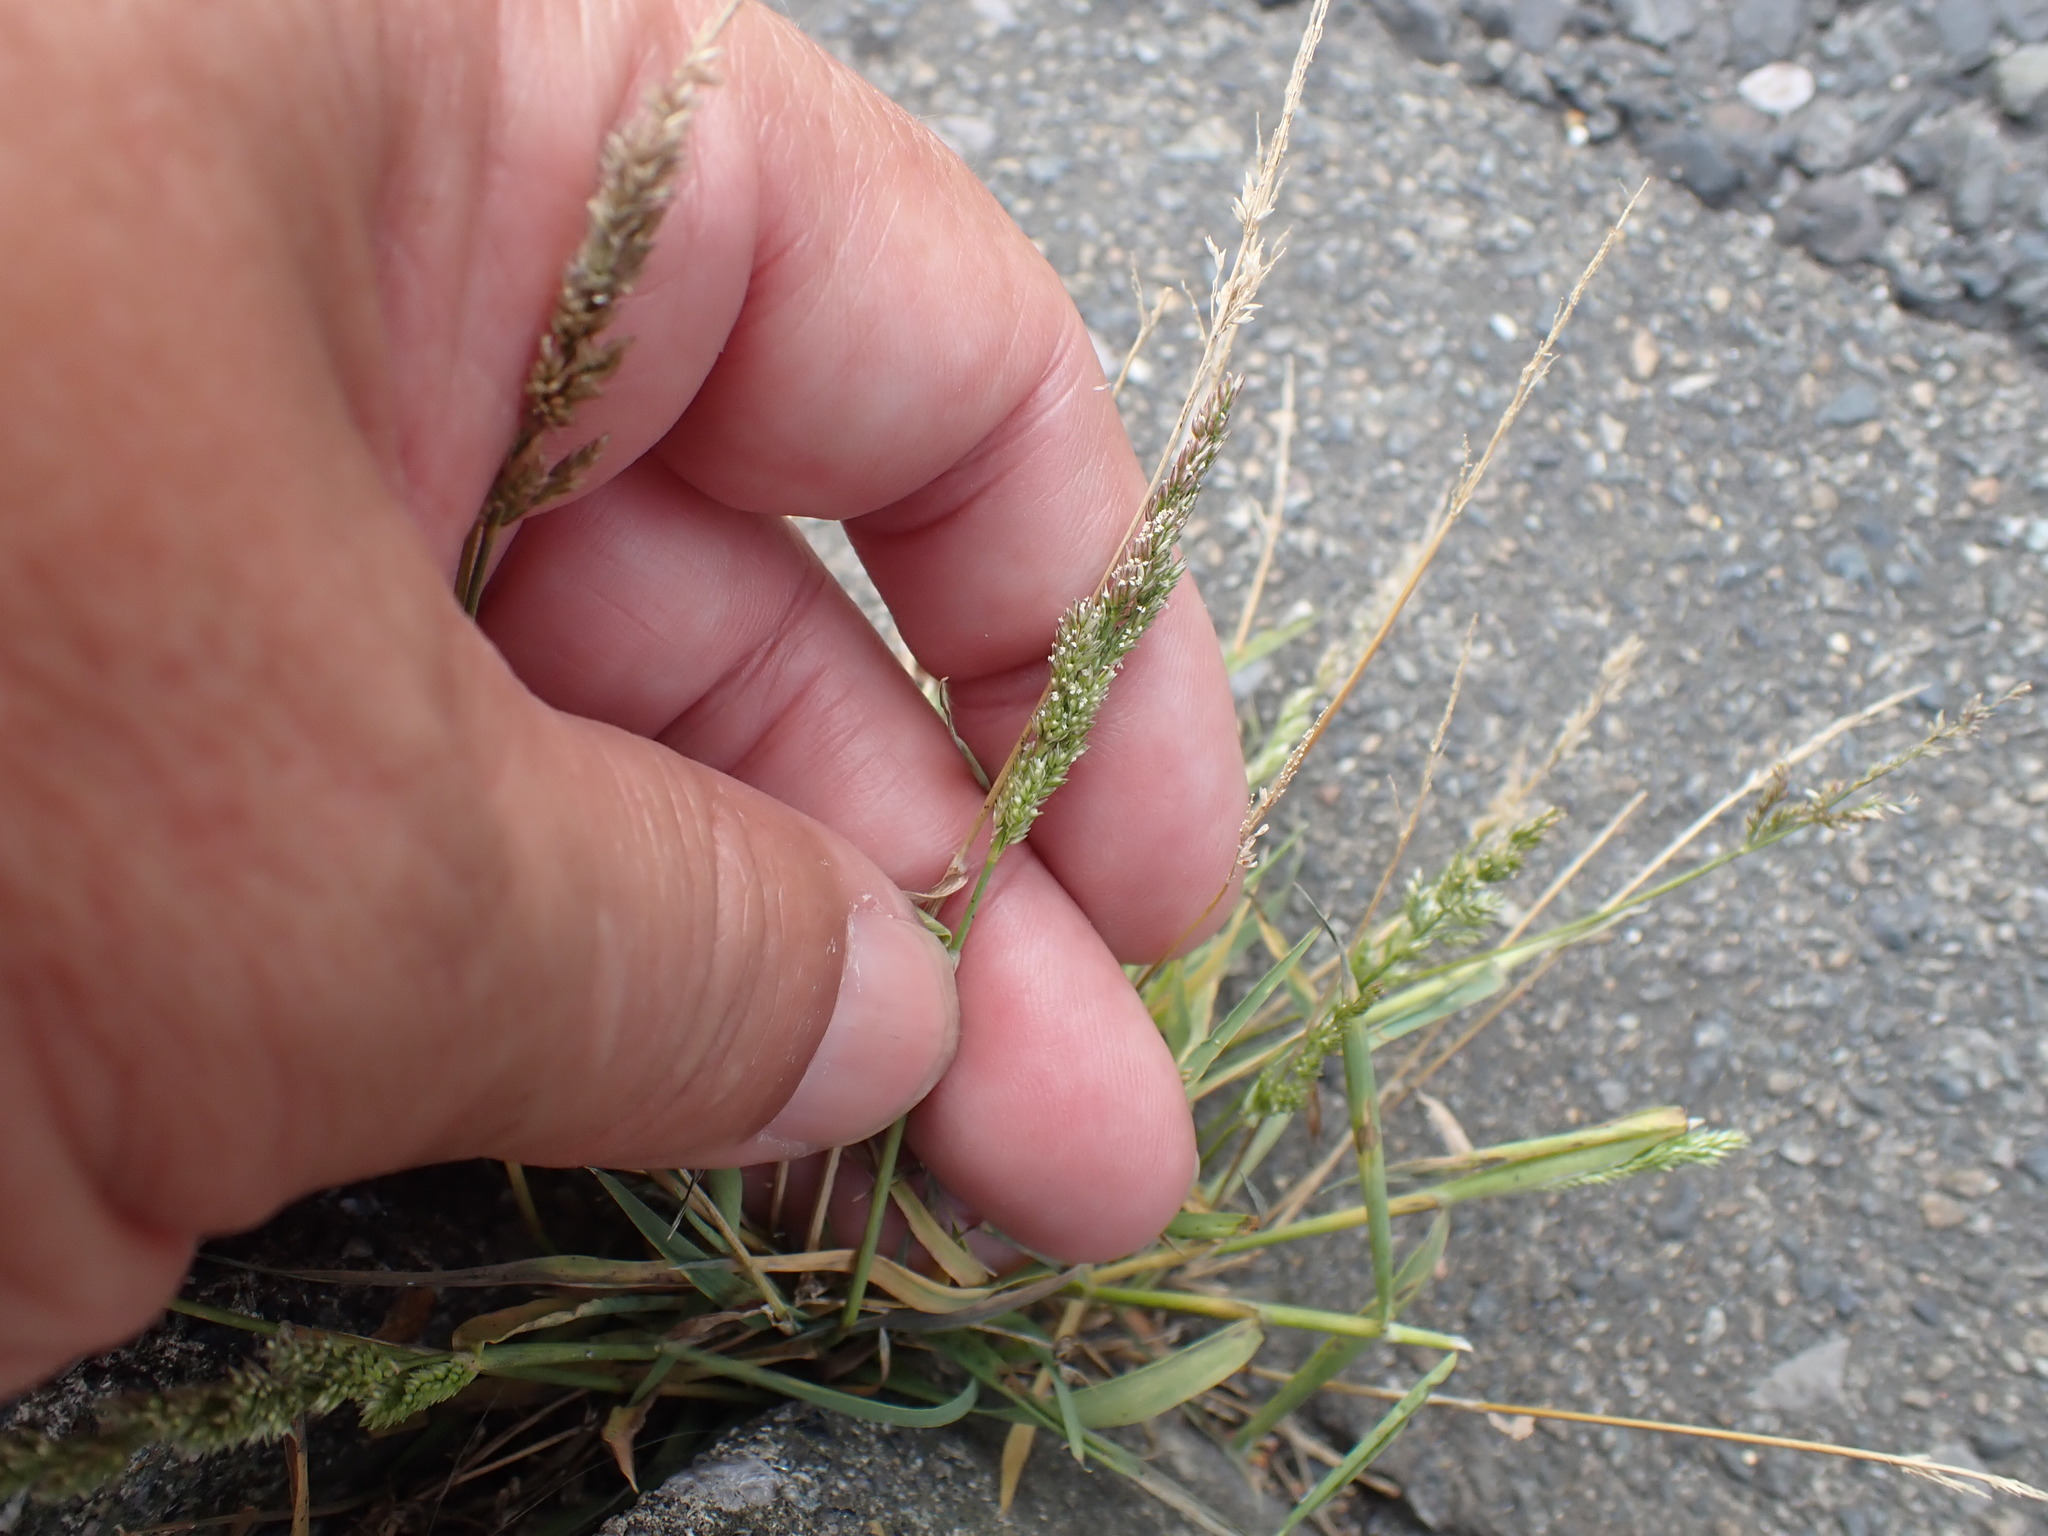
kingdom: Plantae
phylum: Tracheophyta
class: Liliopsida
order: Poales
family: Poaceae
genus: Polypogon
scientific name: Polypogon viridis
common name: Water bent
